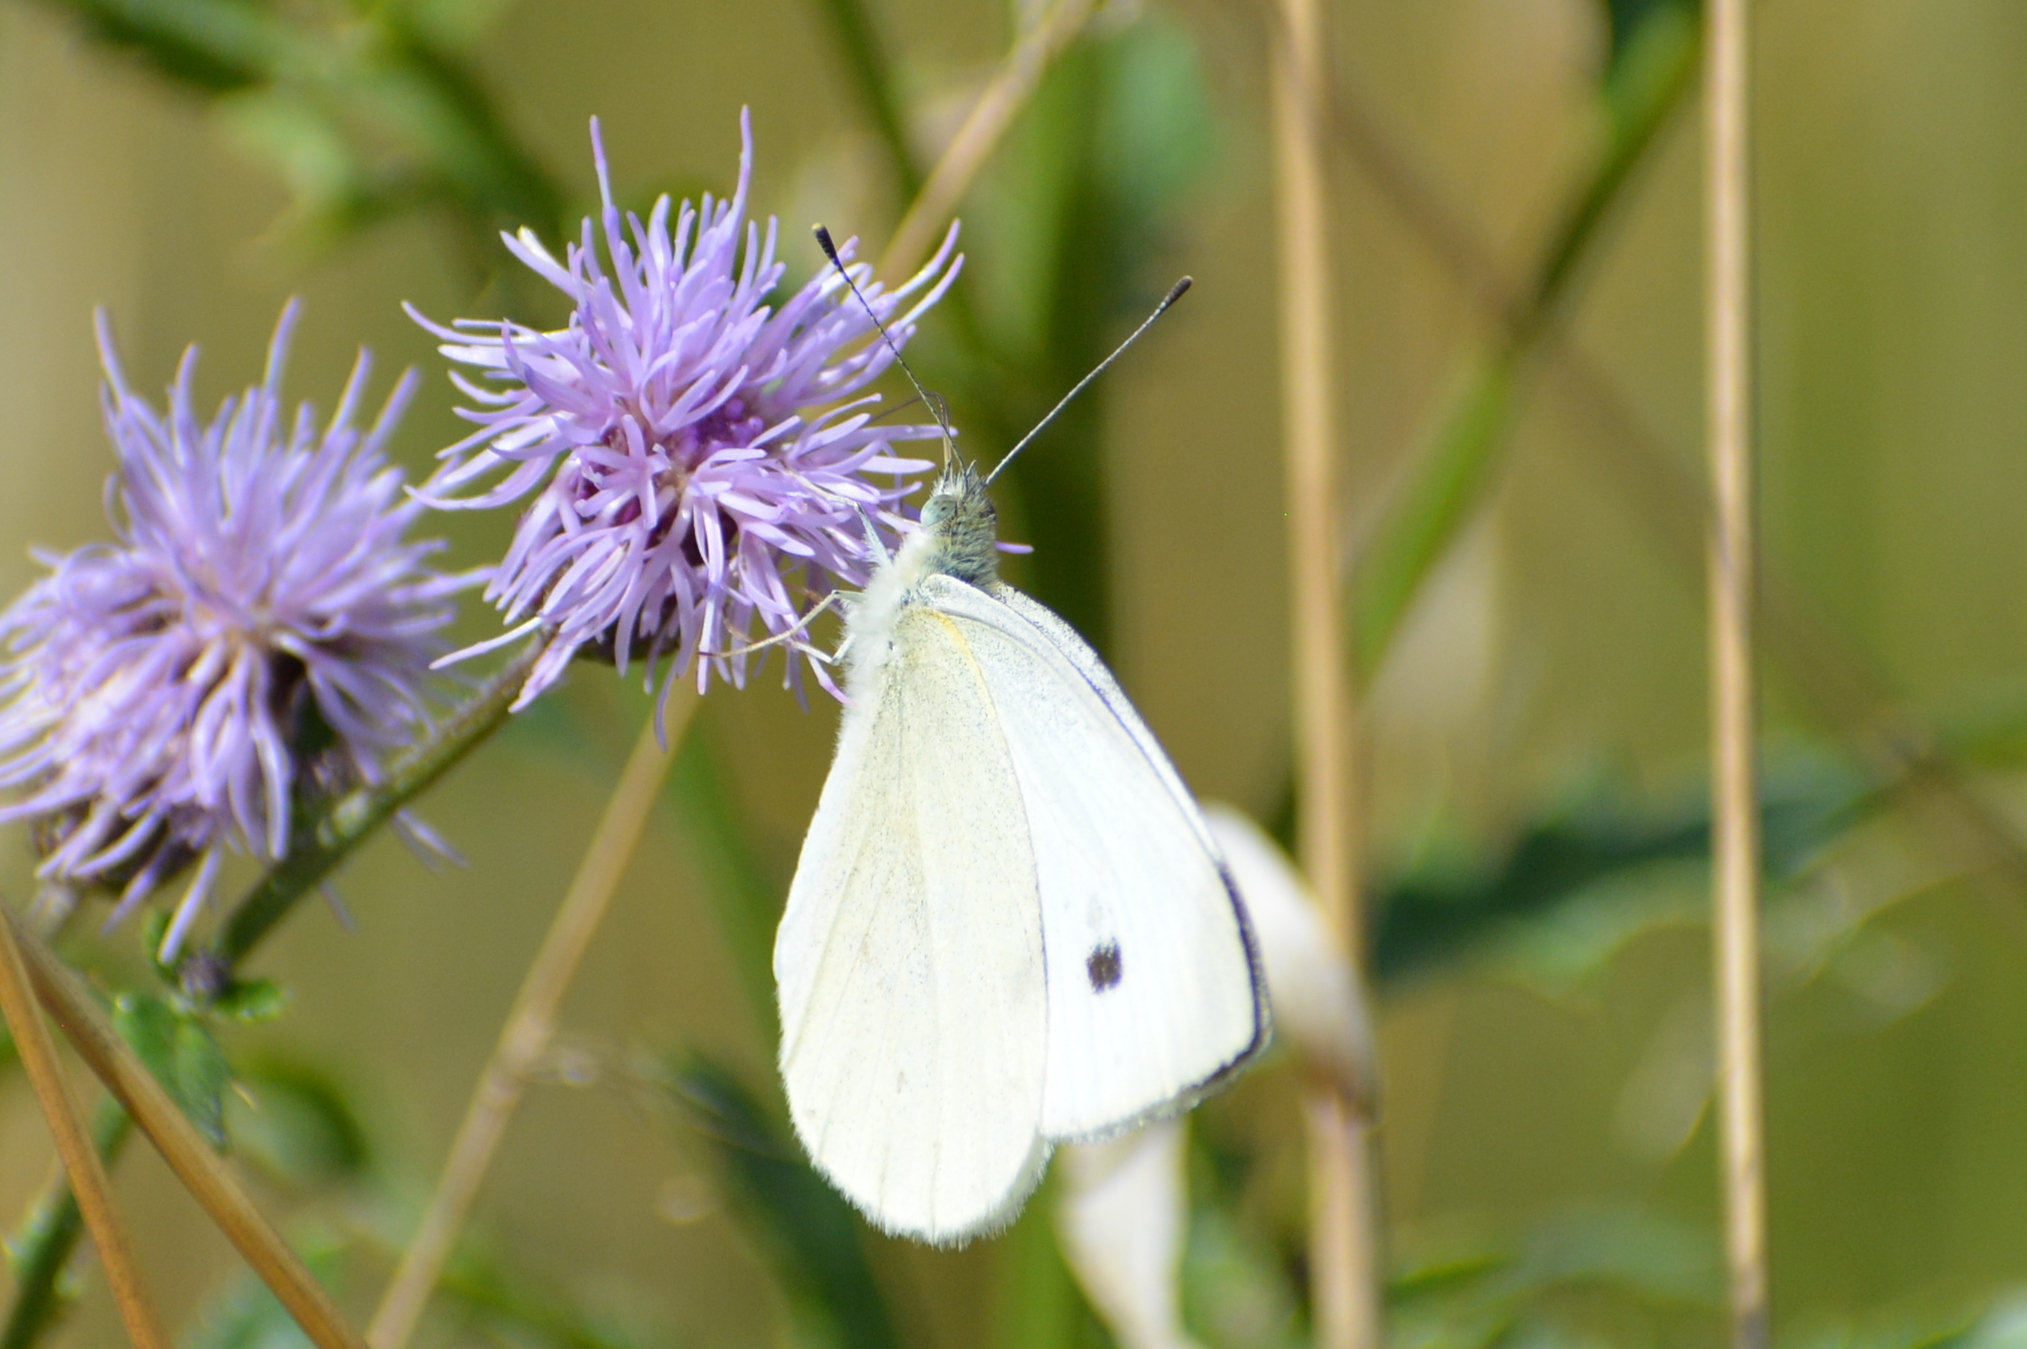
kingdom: Animalia
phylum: Arthropoda
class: Insecta
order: Lepidoptera
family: Pieridae
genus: Pieris
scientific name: Pieris rapae
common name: Small white
